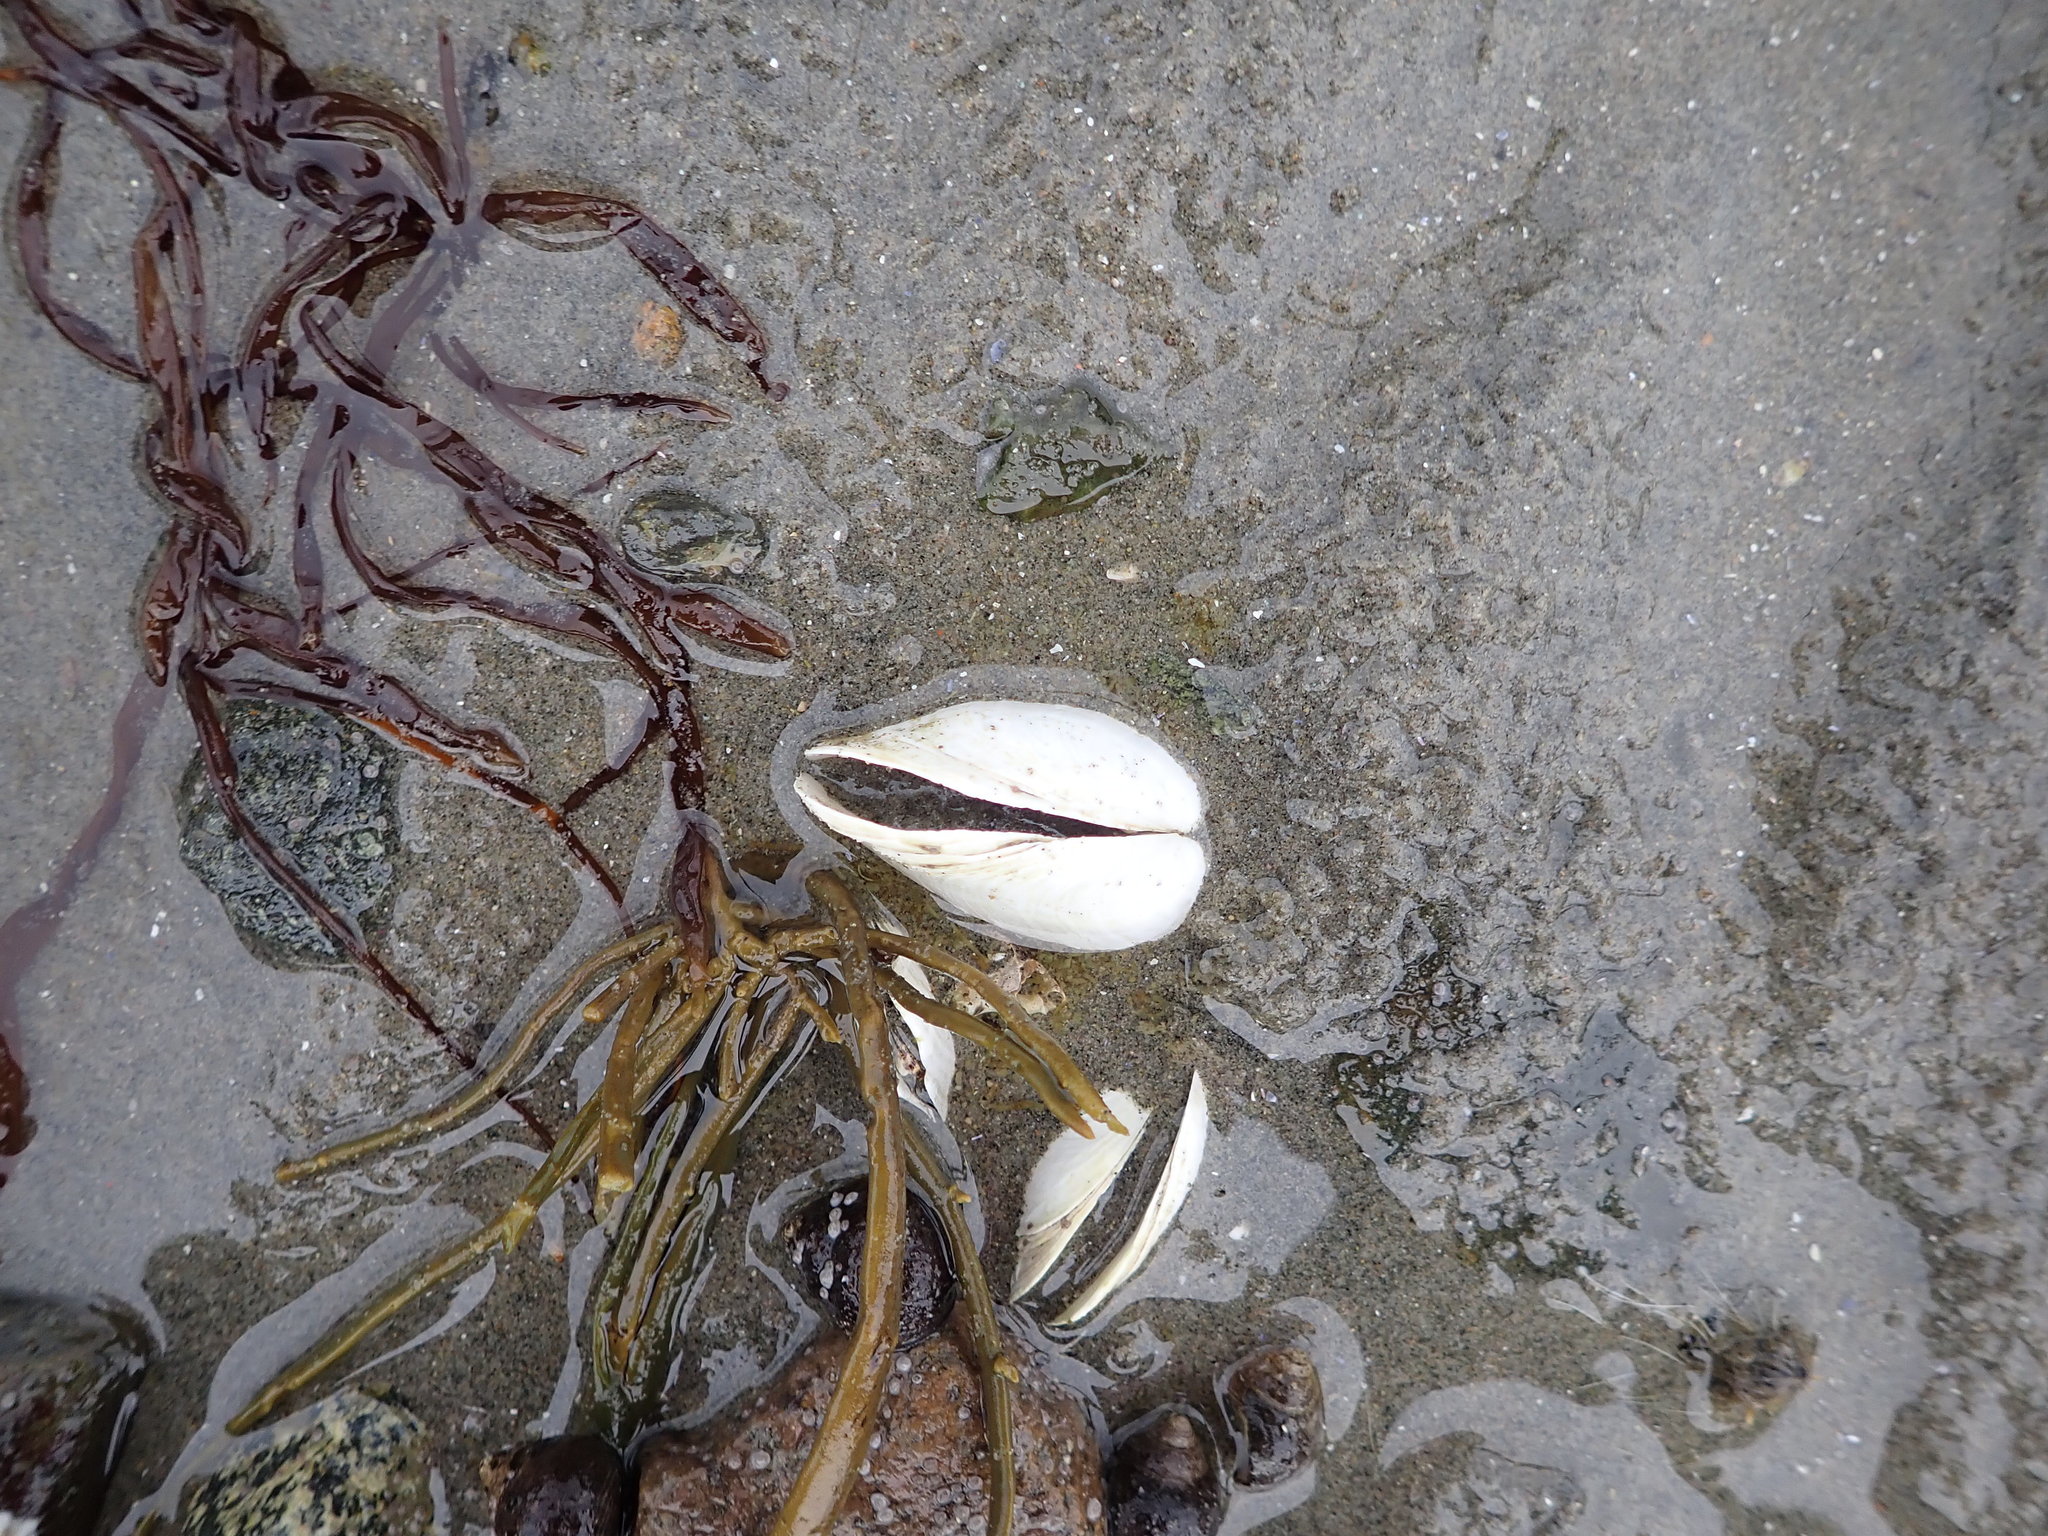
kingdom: Animalia
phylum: Mollusca
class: Bivalvia
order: Myida
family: Myidae
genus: Mya
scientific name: Mya arenaria
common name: Soft-shelled clam
